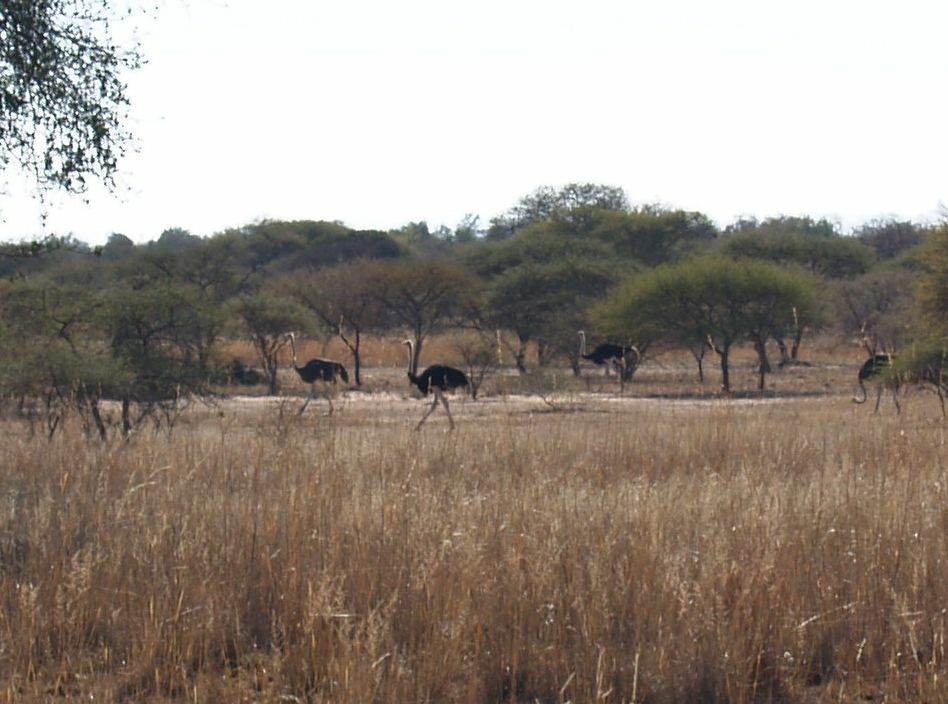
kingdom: Animalia
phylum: Chordata
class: Aves
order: Struthioniformes
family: Struthionidae
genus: Struthio
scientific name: Struthio camelus
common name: Common ostrich
